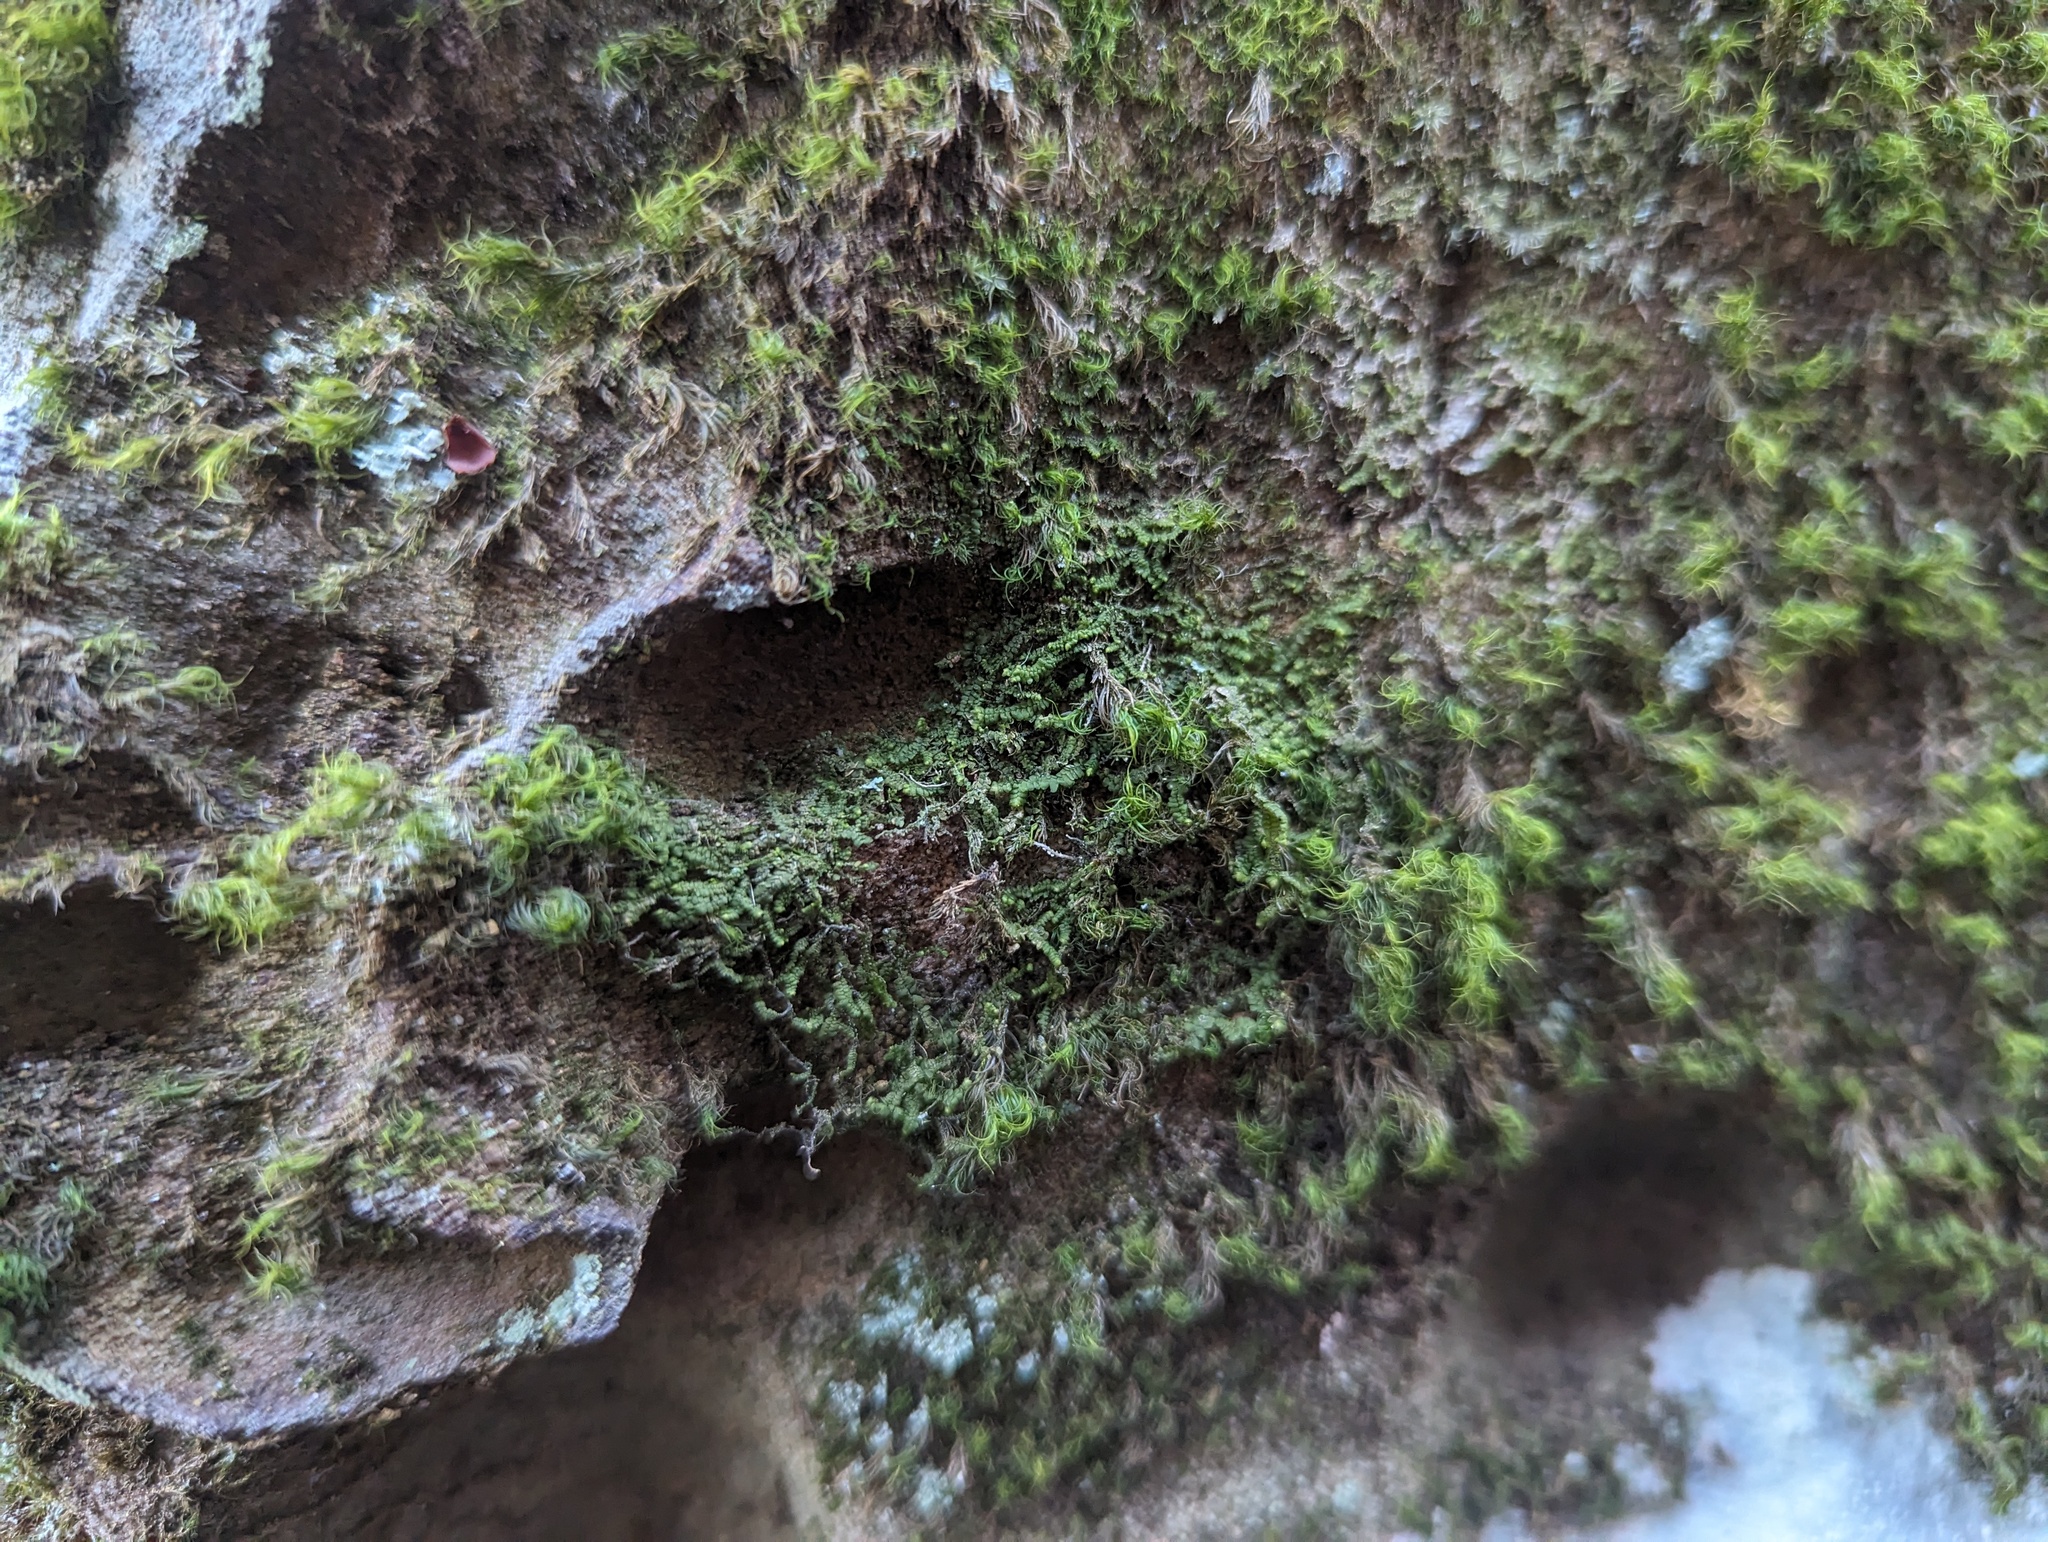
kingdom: Plantae
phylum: Marchantiophyta
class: Jungermanniopsida
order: Jungermanniales
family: Lepidoziaceae
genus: Bazzania
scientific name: Bazzania trilobata
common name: Three-lobed whipwort
